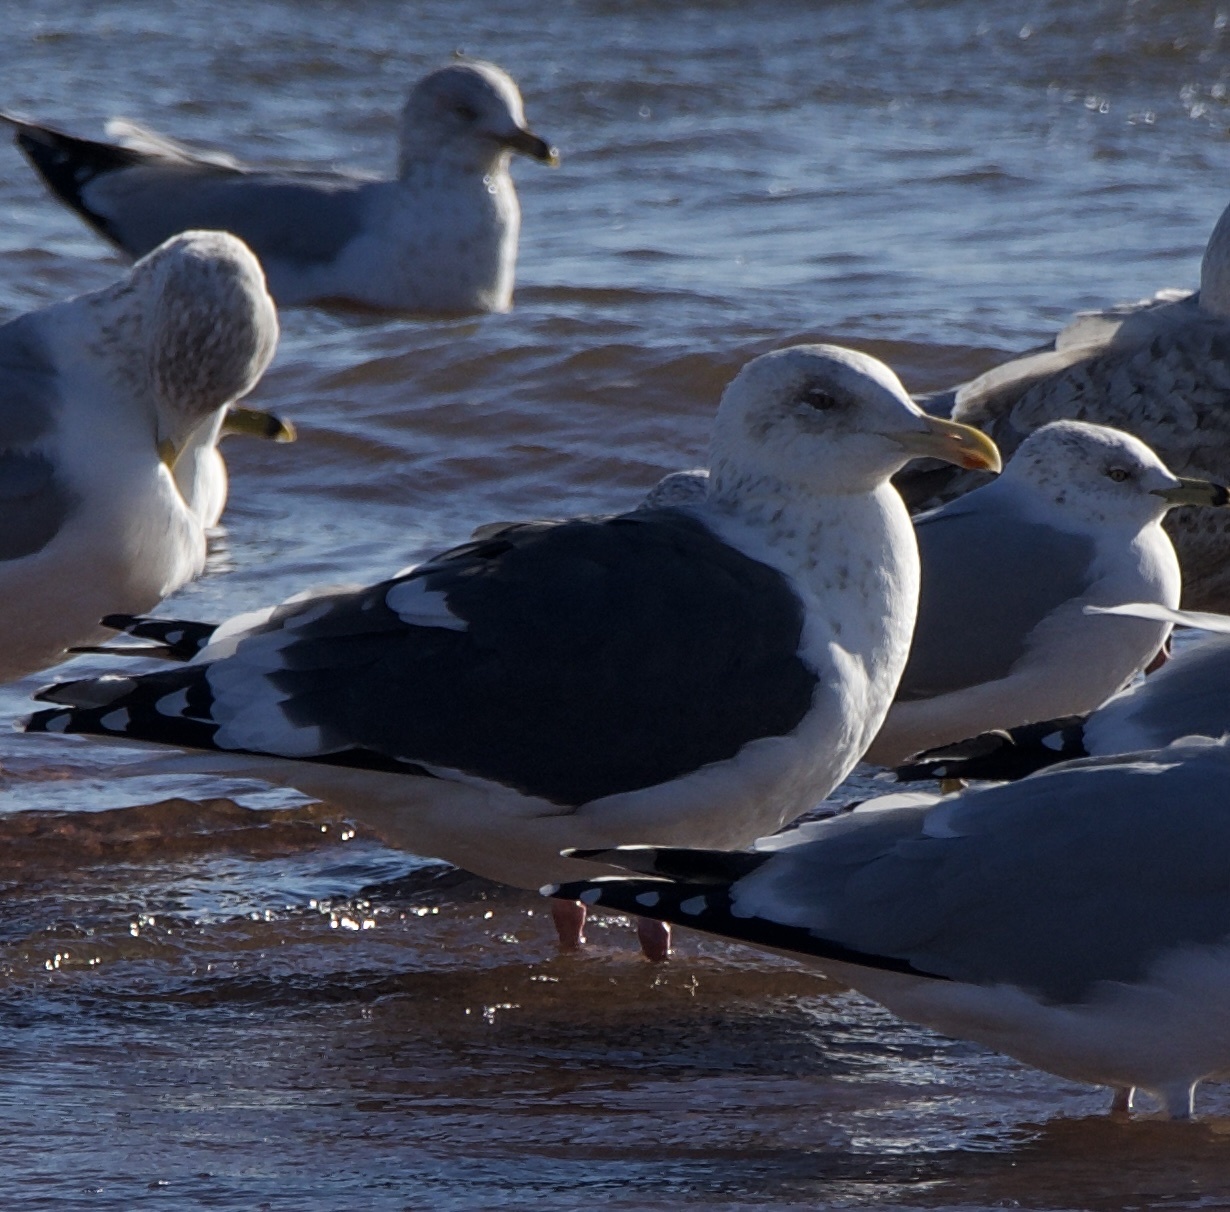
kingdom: Animalia
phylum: Chordata
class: Aves
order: Charadriiformes
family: Laridae
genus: Larus
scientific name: Larus schistisagus
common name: Slaty-backed gull
